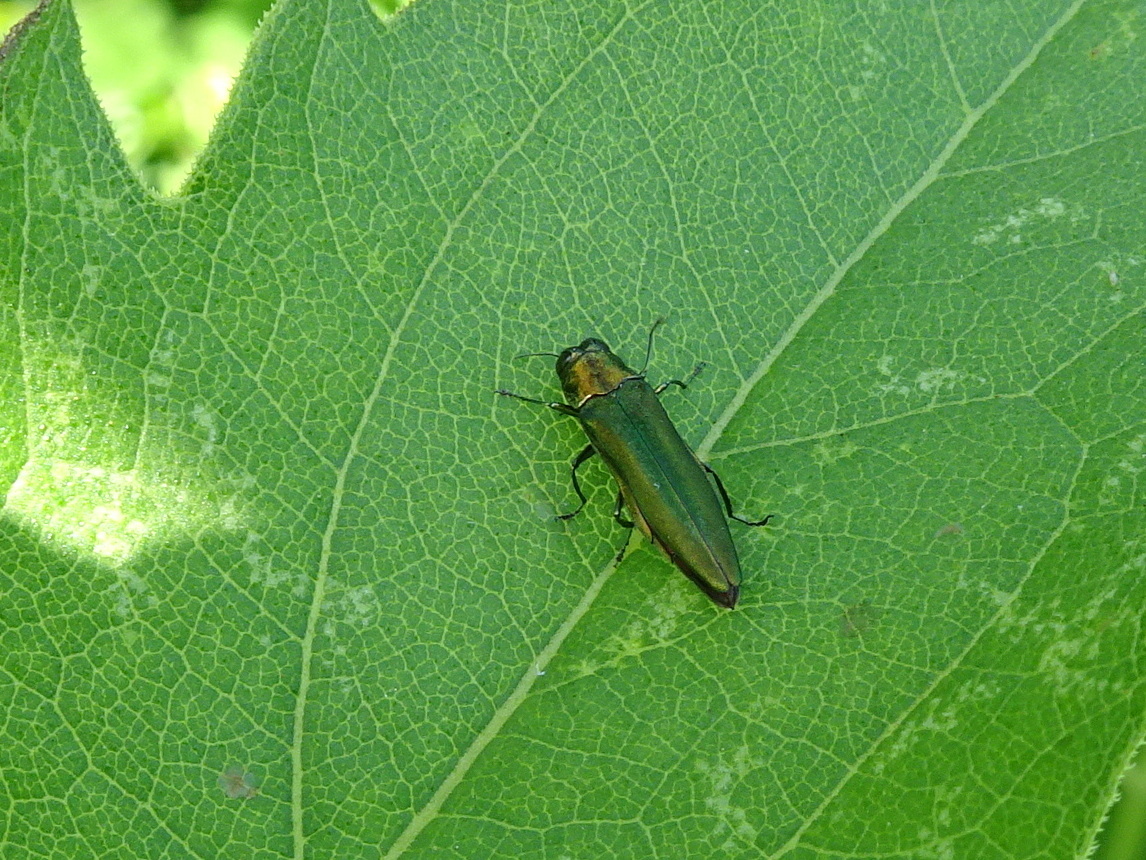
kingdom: Animalia
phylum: Arthropoda
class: Insecta
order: Coleoptera
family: Buprestidae
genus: Agrilus
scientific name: Agrilus planipennis
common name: Emerald ash borer
